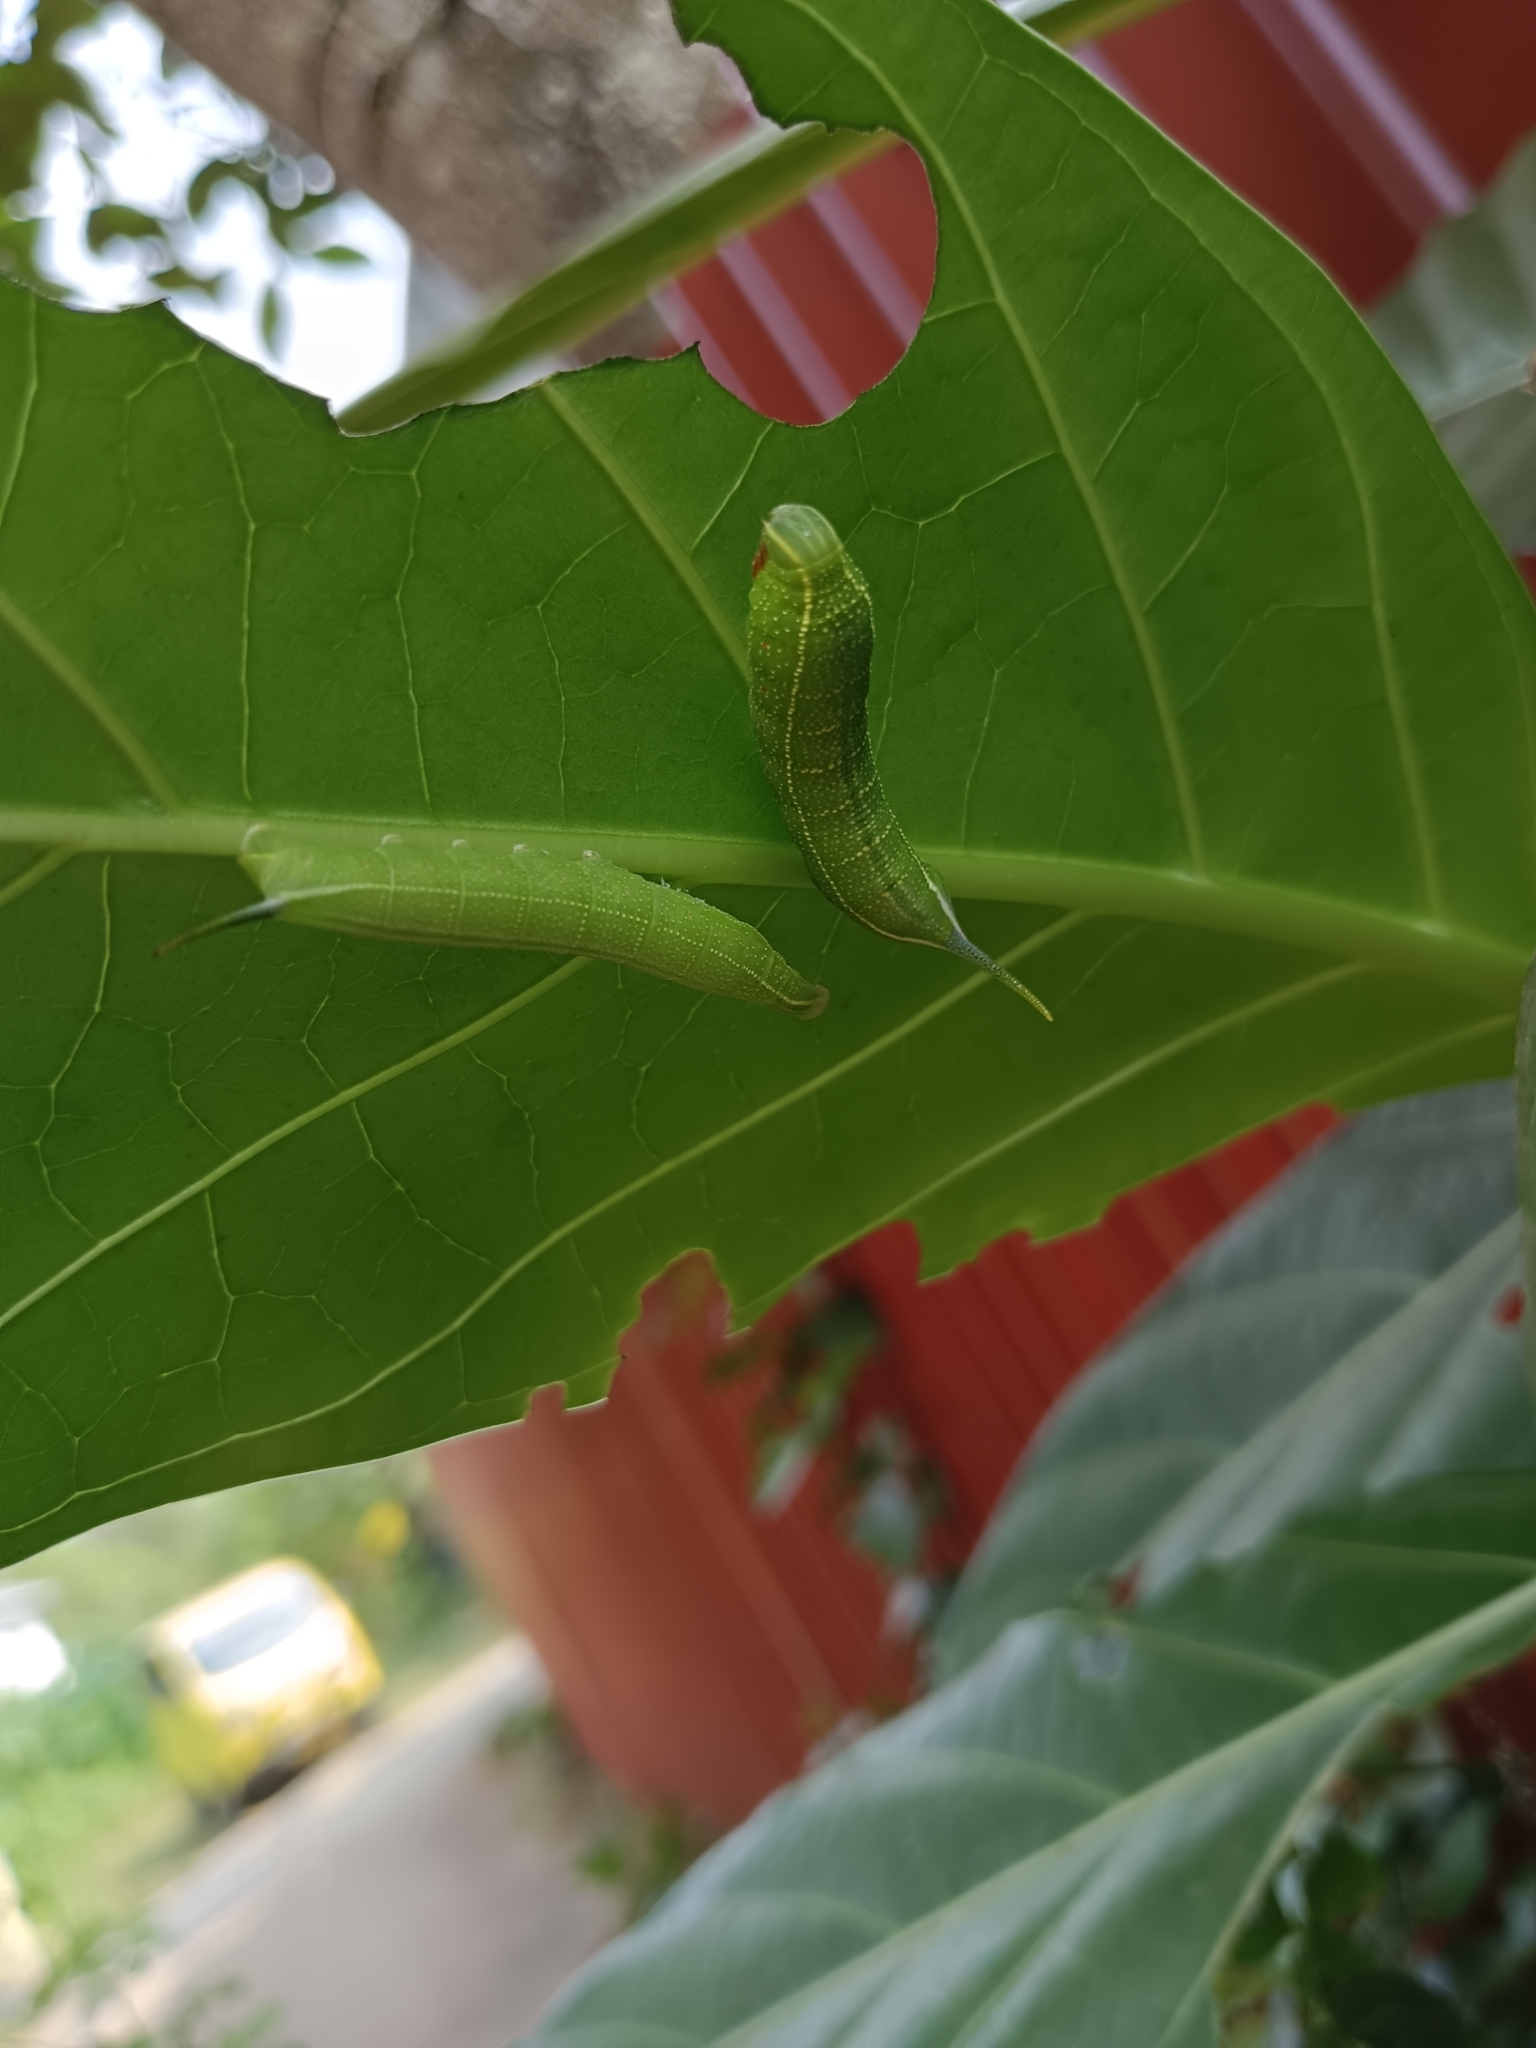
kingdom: Animalia
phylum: Arthropoda
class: Insecta
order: Lepidoptera
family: Sphingidae
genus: Macroglossum
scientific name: Macroglossum sitiene
